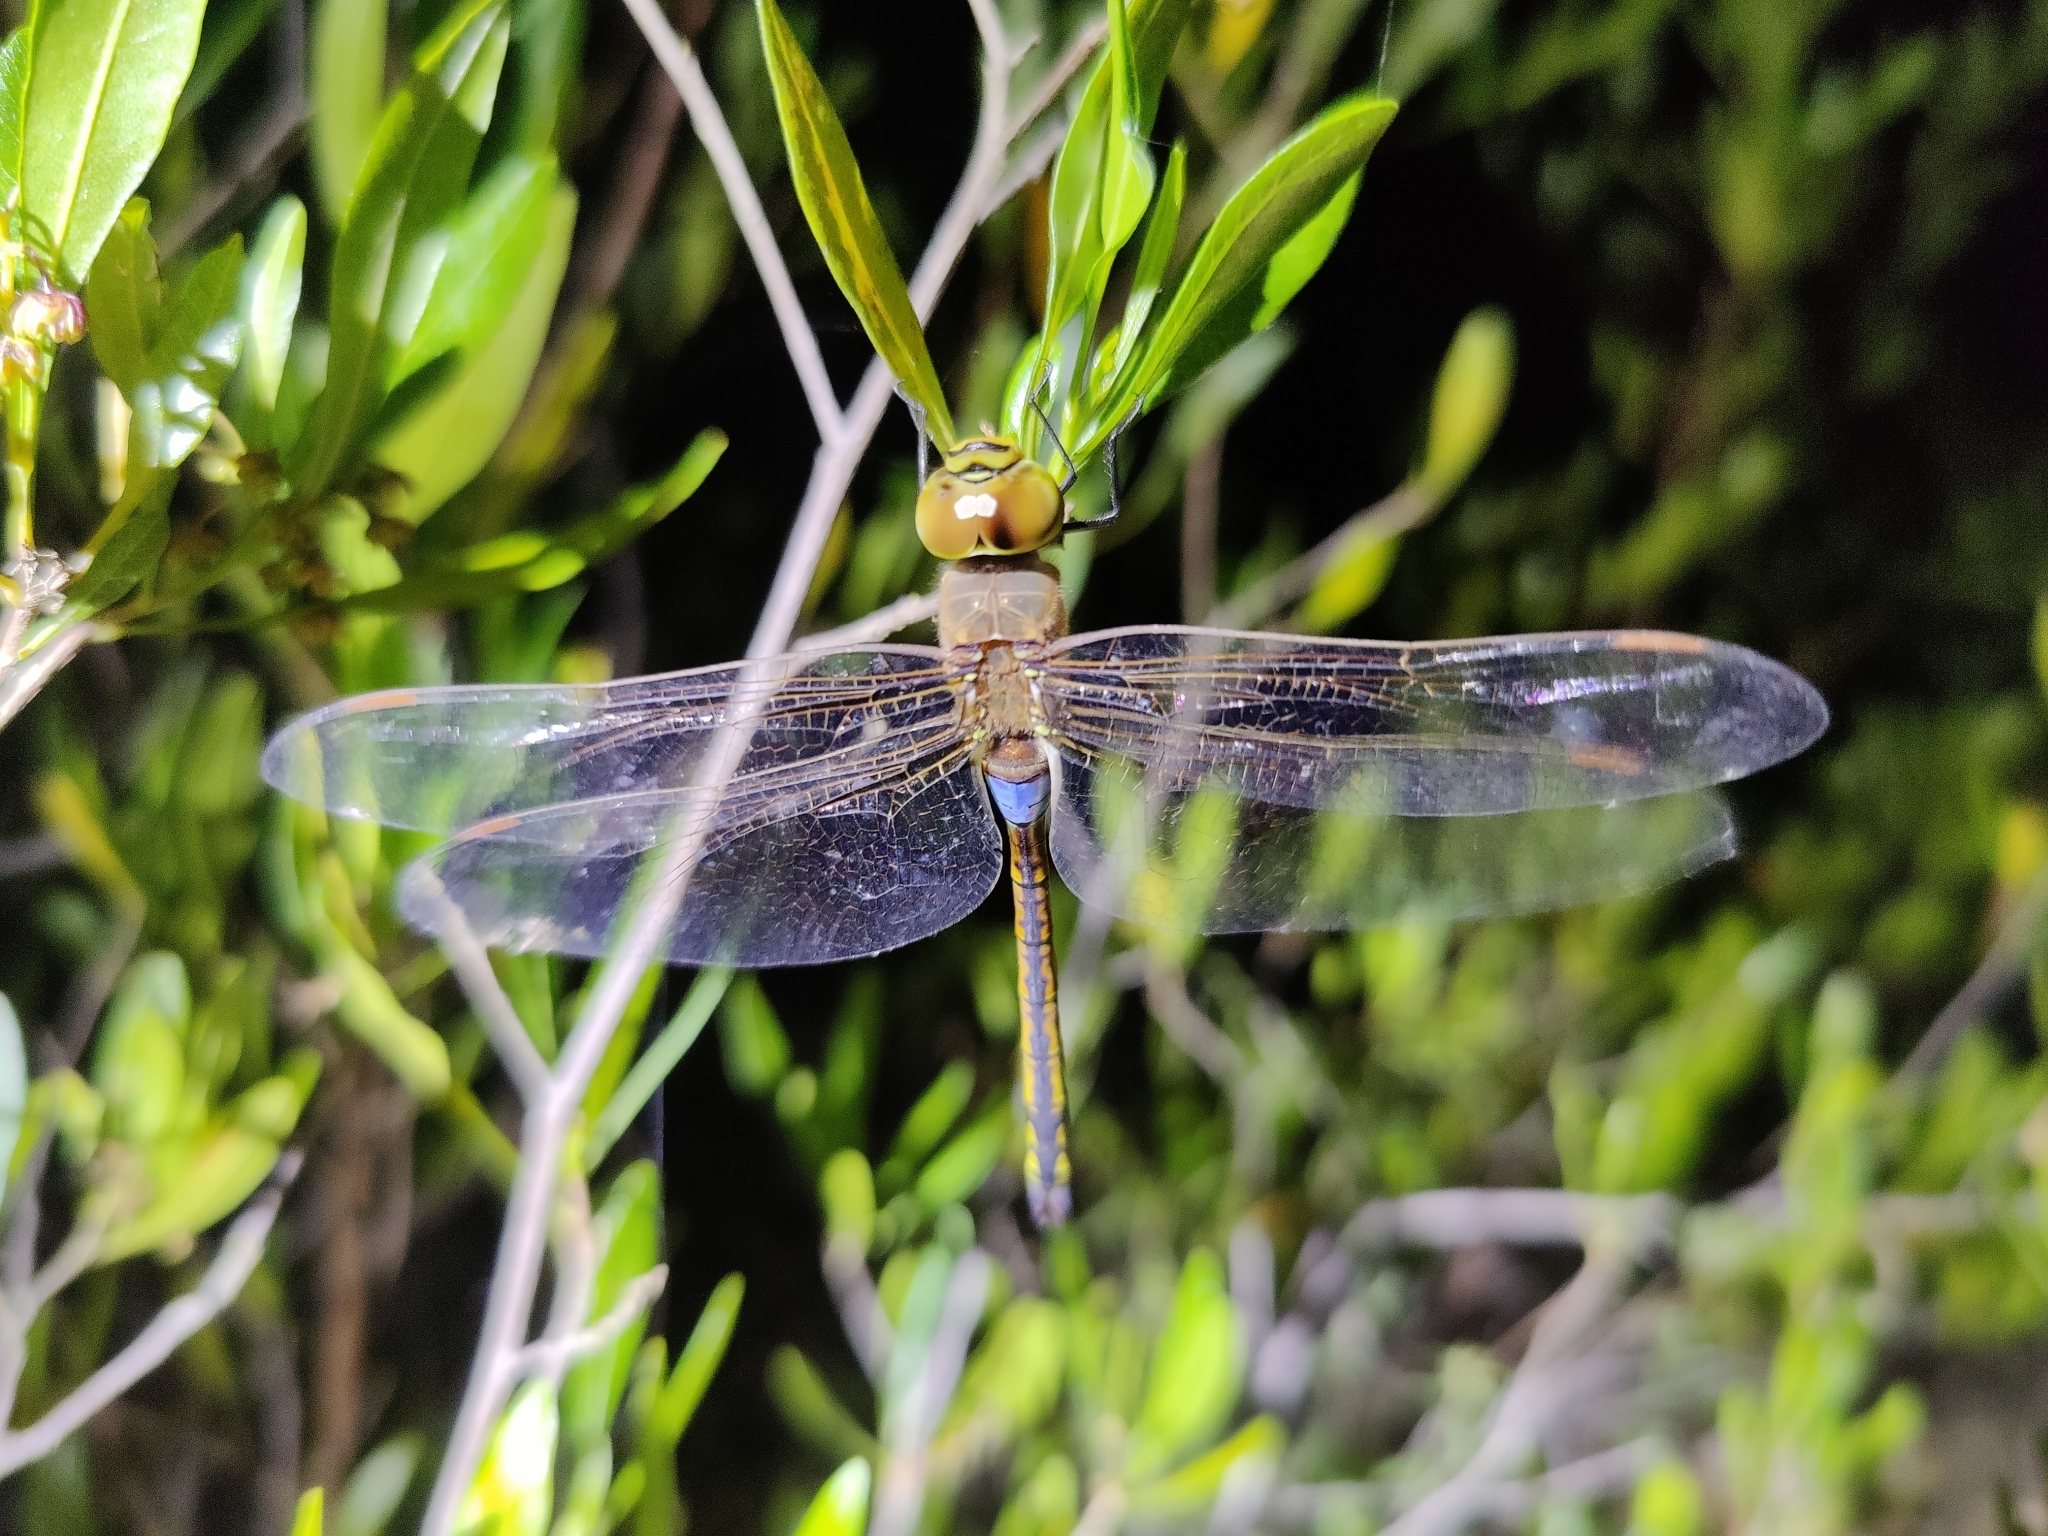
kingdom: Animalia
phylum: Arthropoda
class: Insecta
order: Odonata
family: Aeshnidae
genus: Anax
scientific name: Anax ephippiger
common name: Vagrant emperor
